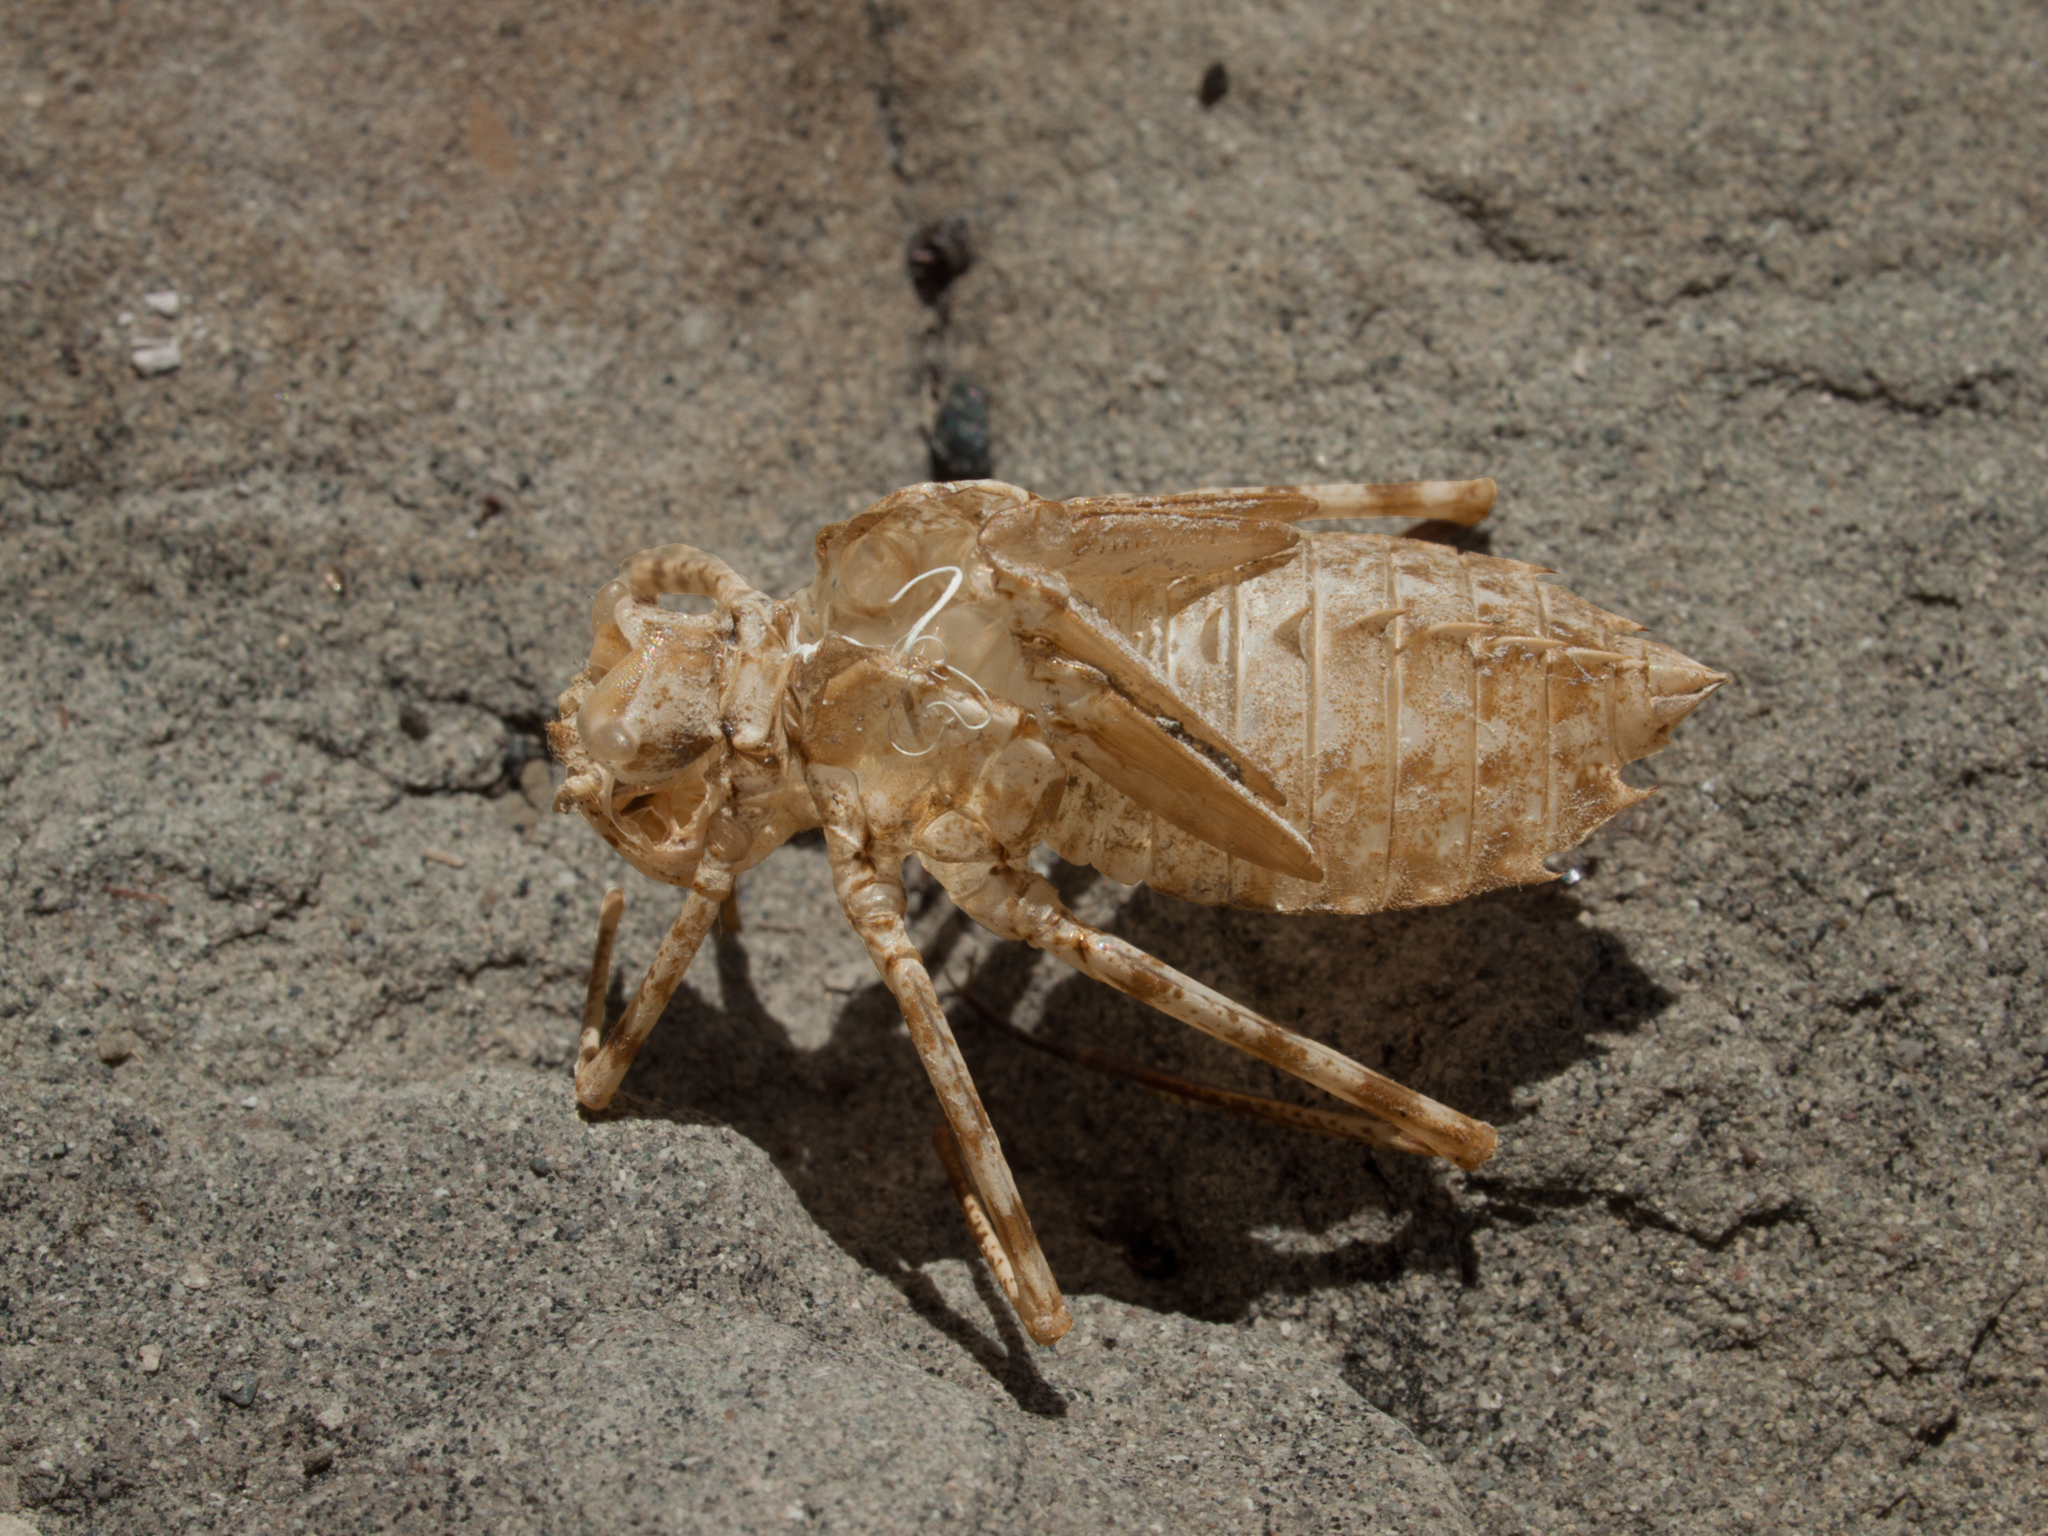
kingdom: Animalia
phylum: Arthropoda
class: Insecta
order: Odonata
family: Macromiidae
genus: Macromia
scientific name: Macromia magnifica
